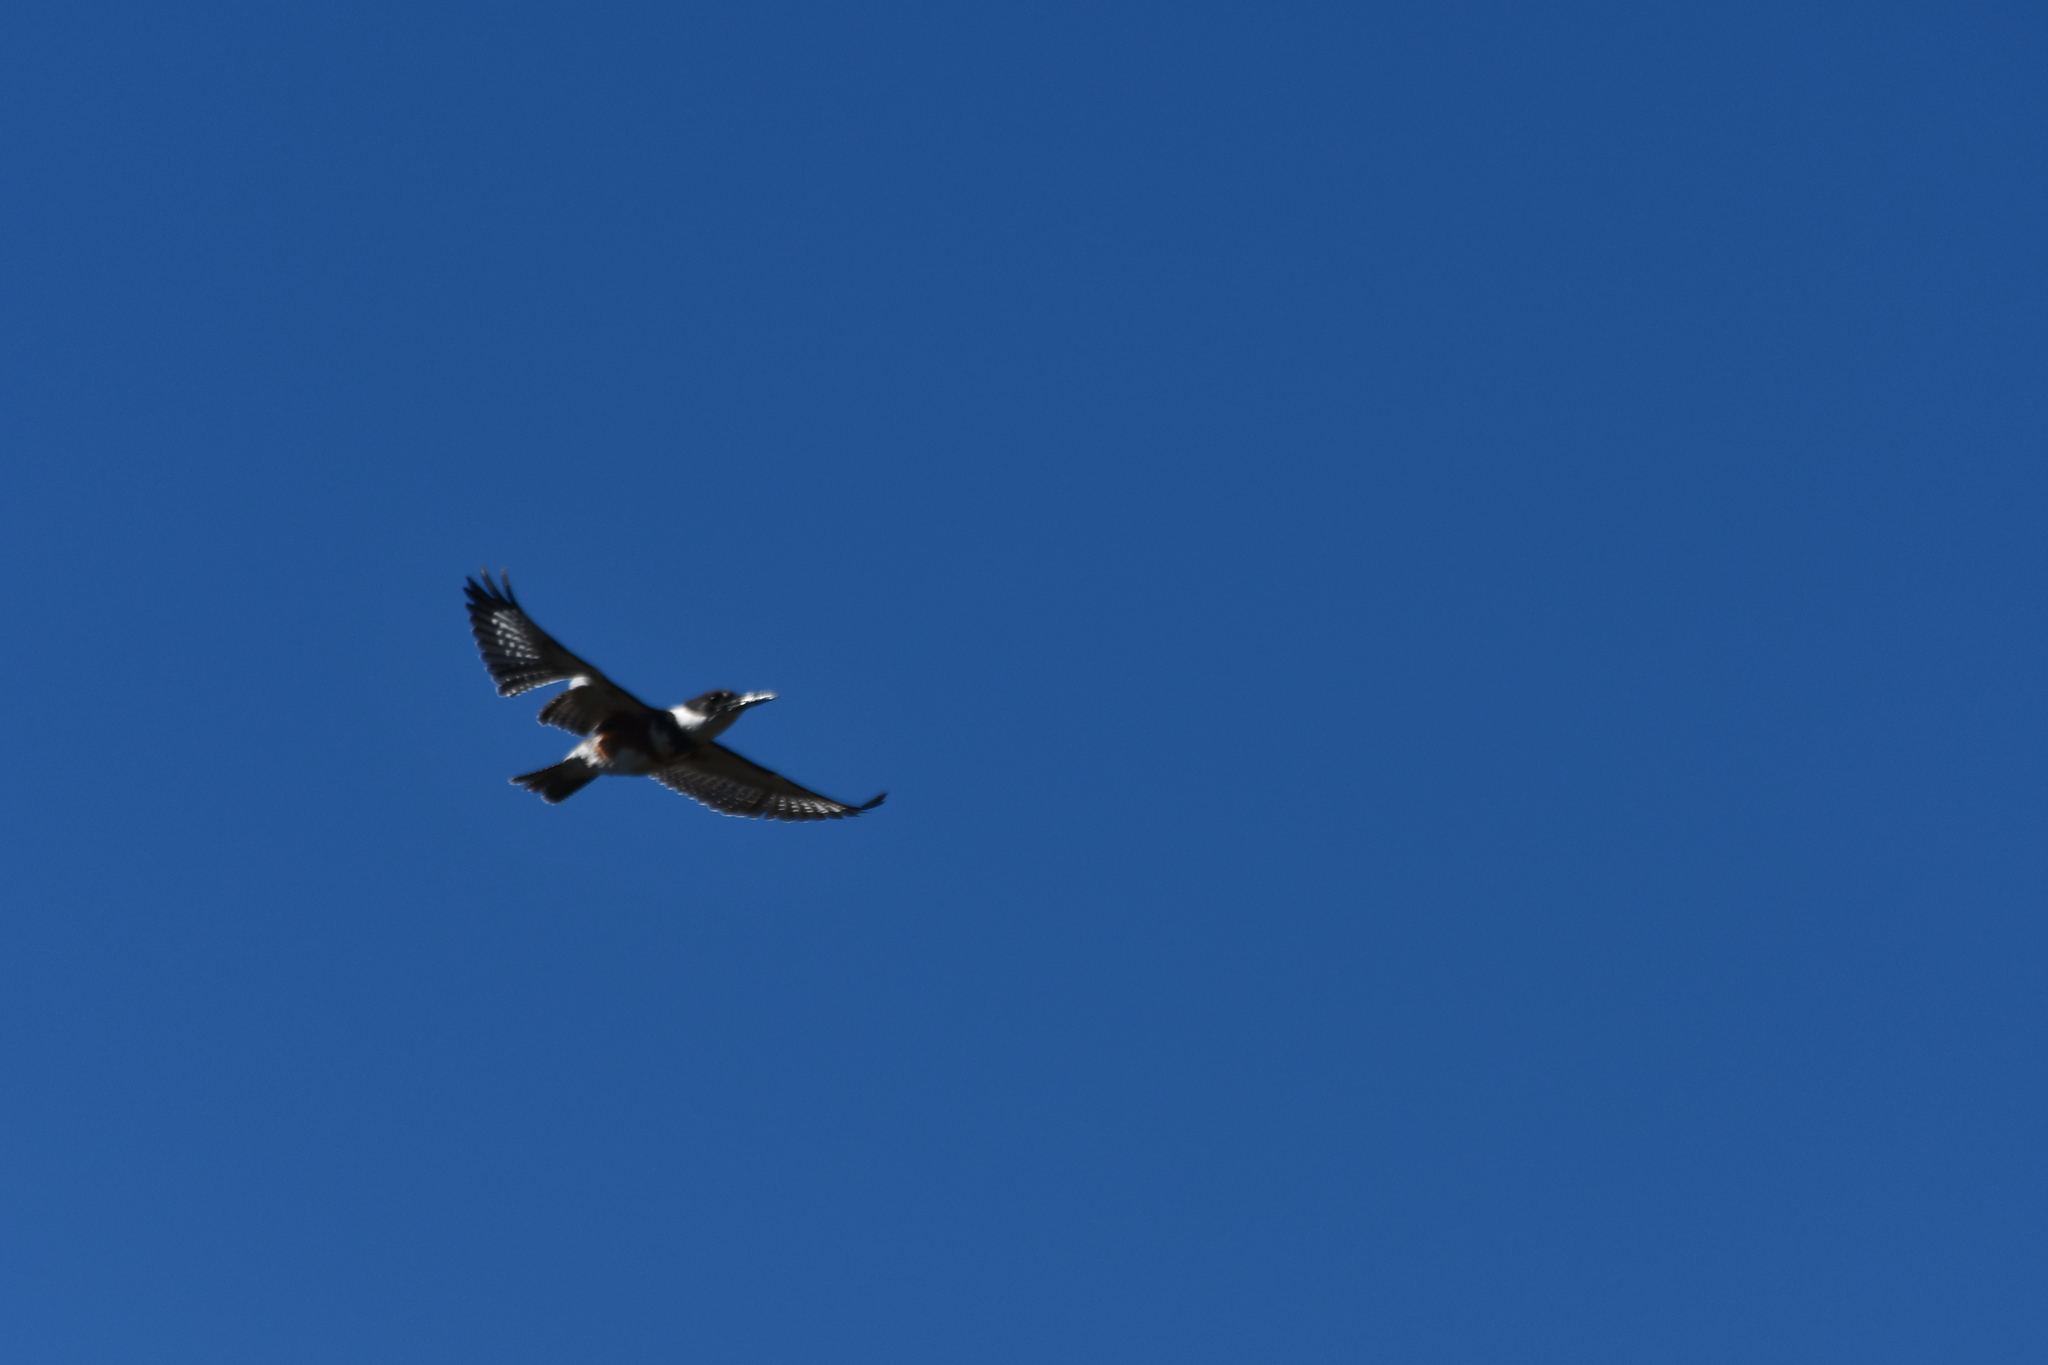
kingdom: Animalia
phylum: Chordata
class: Aves
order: Coraciiformes
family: Alcedinidae
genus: Megaceryle
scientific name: Megaceryle alcyon
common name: Belted kingfisher
